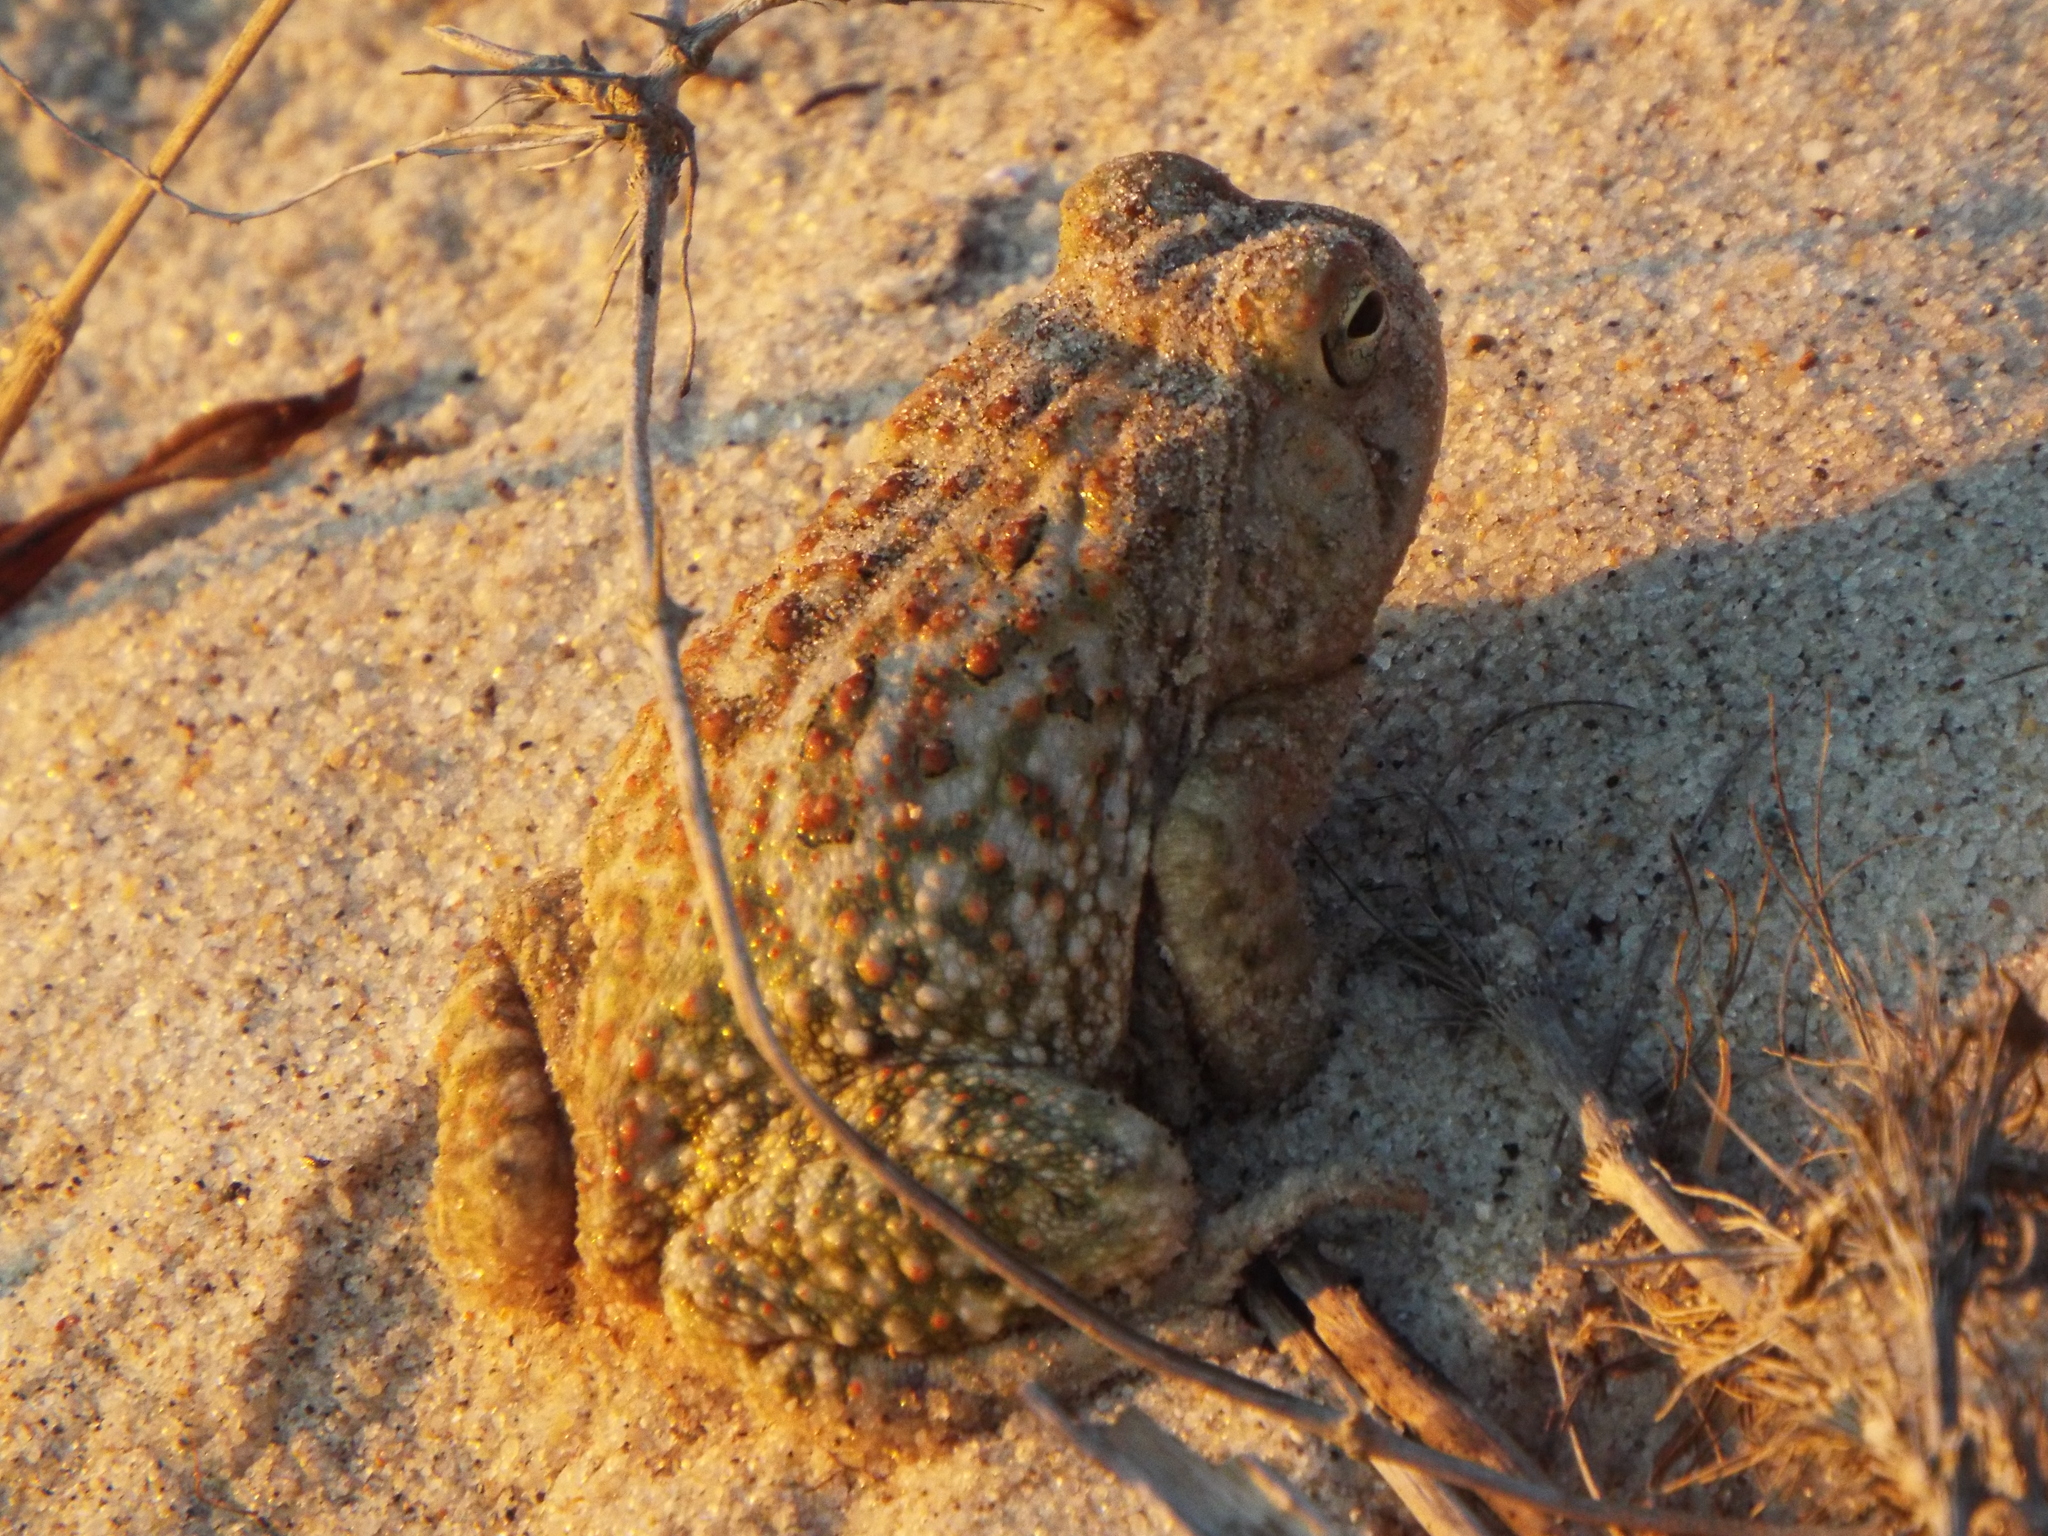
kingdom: Animalia
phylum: Chordata
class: Amphibia
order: Anura
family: Bufonidae
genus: Anaxyrus
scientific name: Anaxyrus fowleri
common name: Fowler's toad
